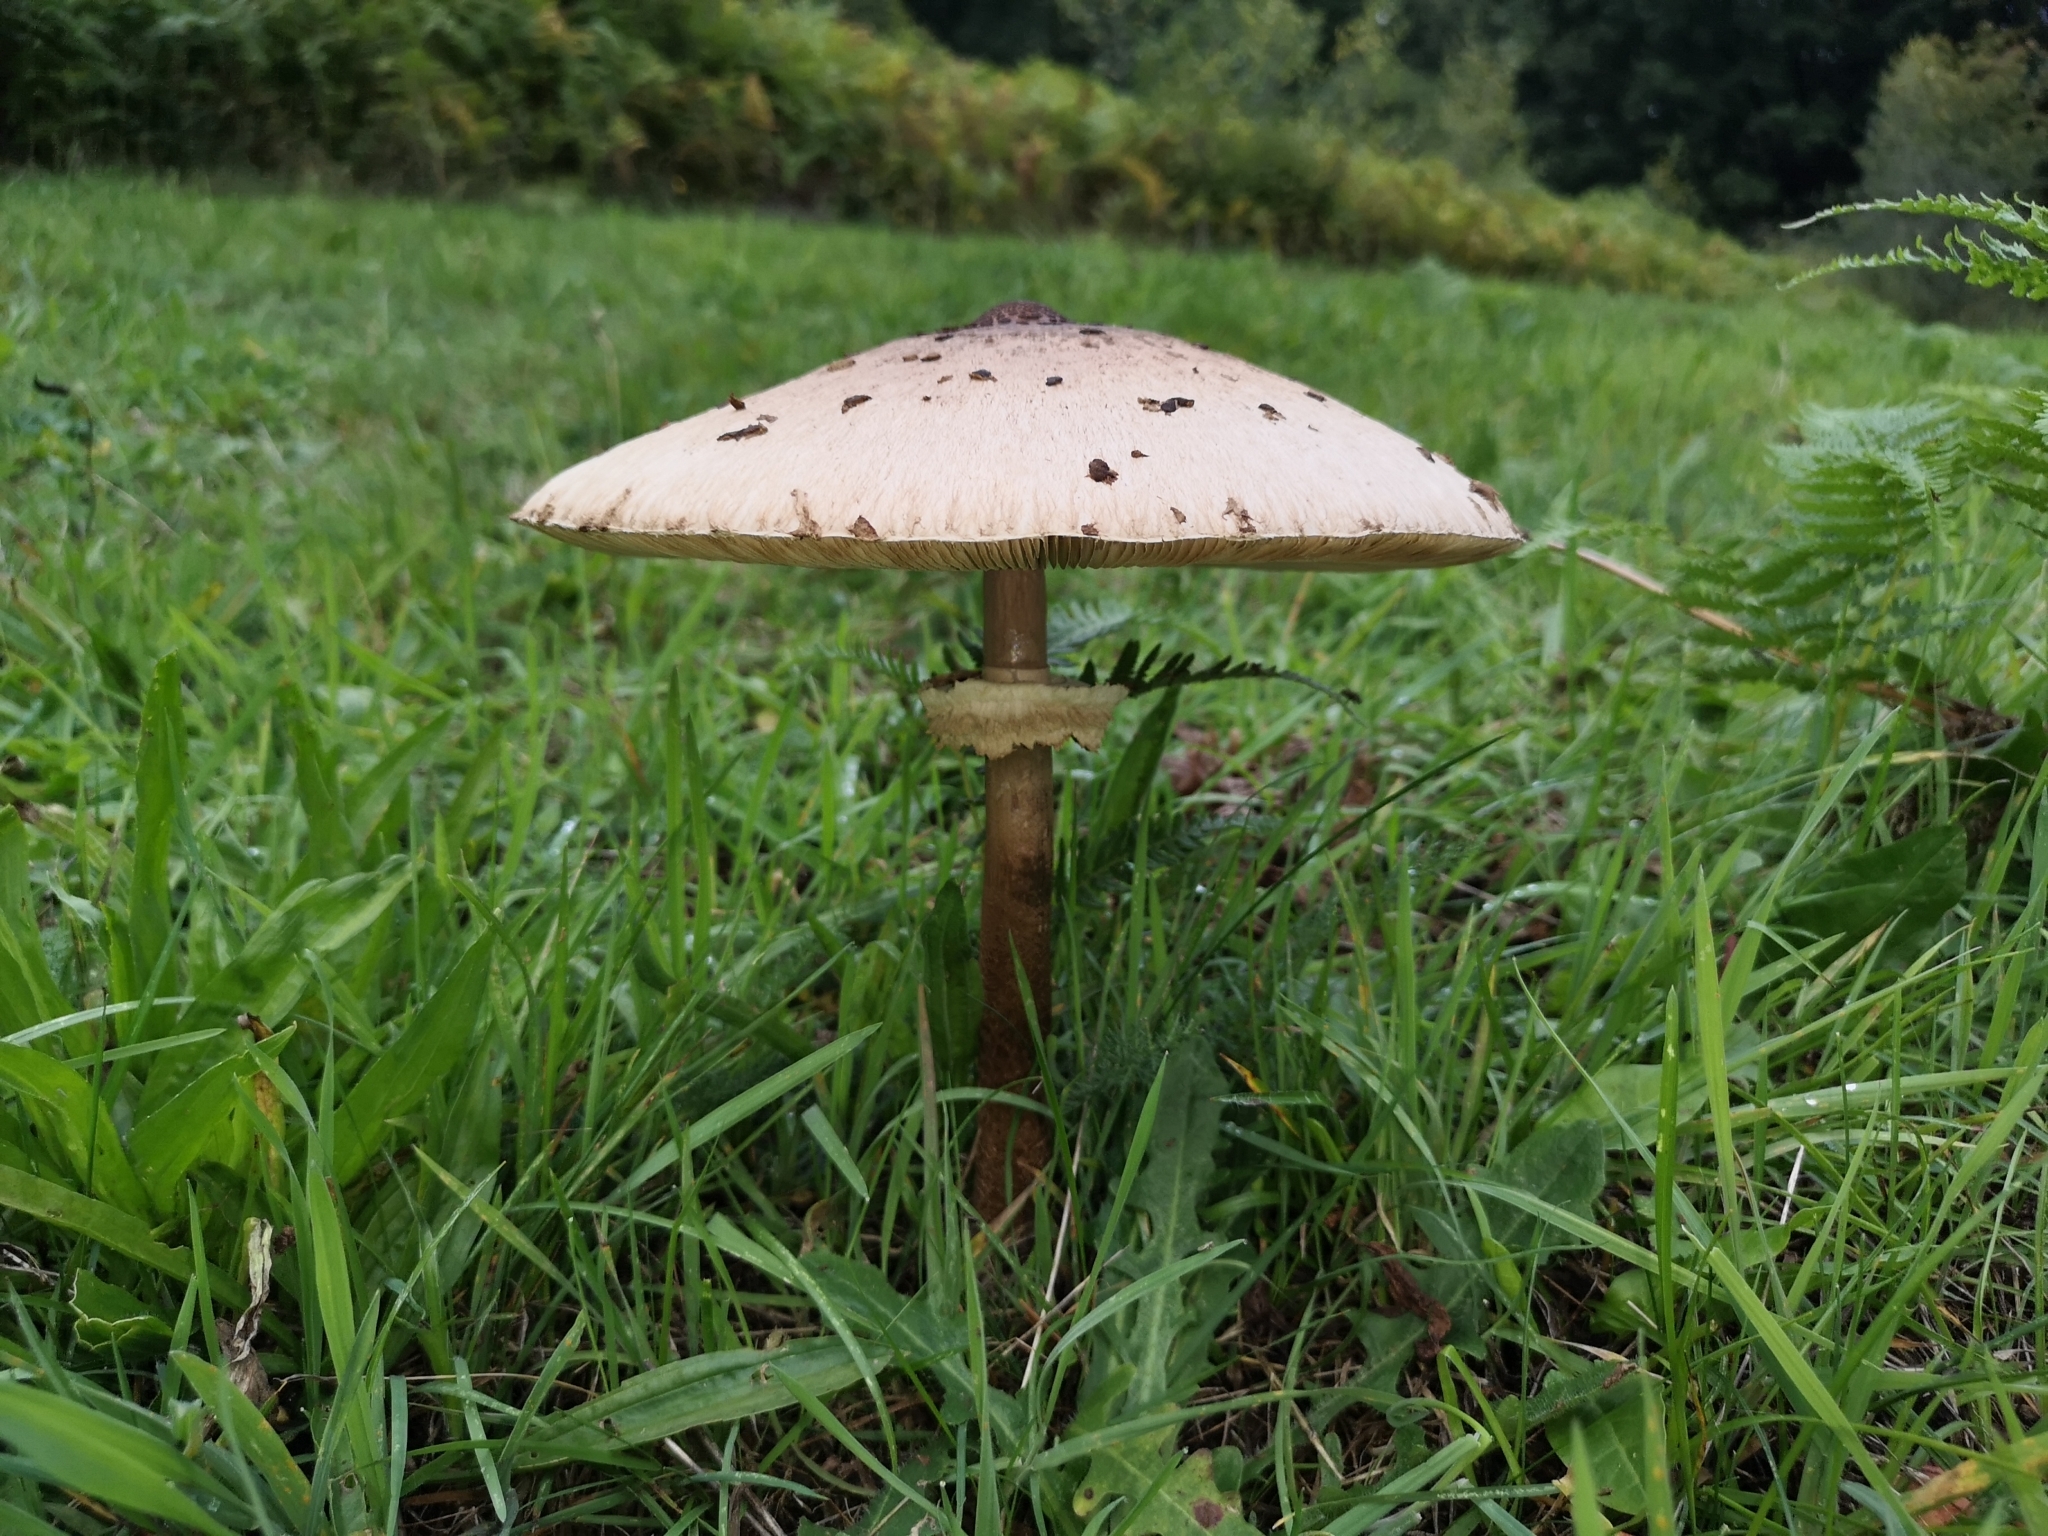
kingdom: Fungi
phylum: Basidiomycota
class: Agaricomycetes
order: Agaricales
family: Agaricaceae
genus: Macrolepiota
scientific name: Macrolepiota procera
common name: Parasol
